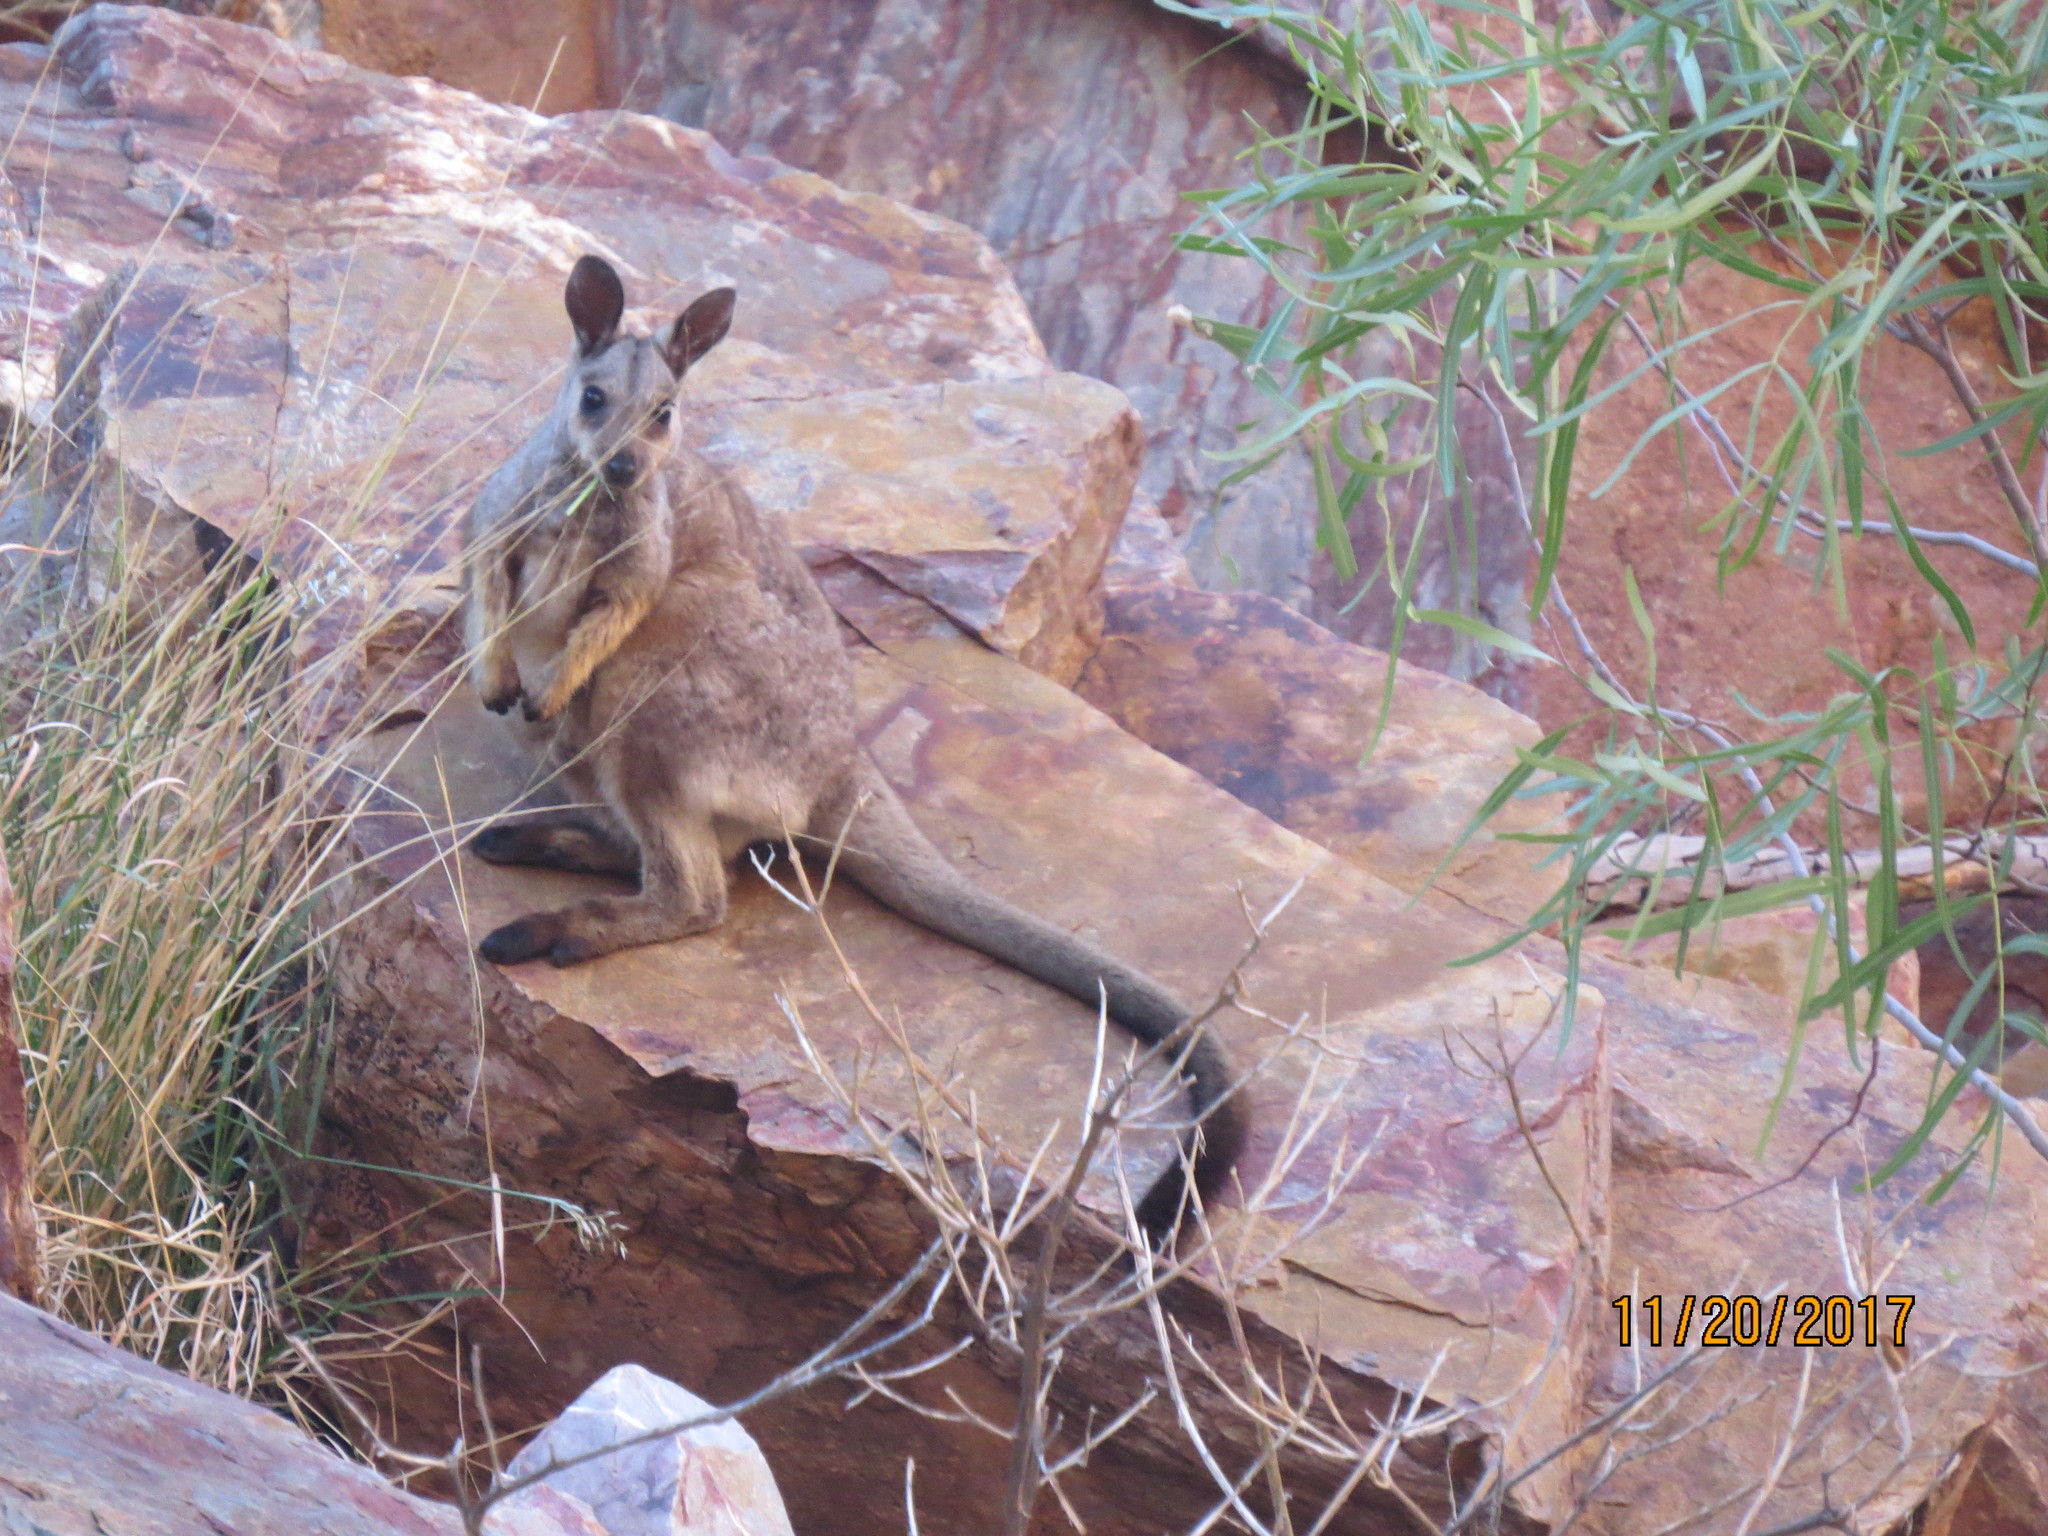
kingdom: Animalia
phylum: Chordata
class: Mammalia
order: Diprotodontia
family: Macropodidae
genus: Petrogale
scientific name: Petrogale lateralis
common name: Black-flanked rock-wallaby
